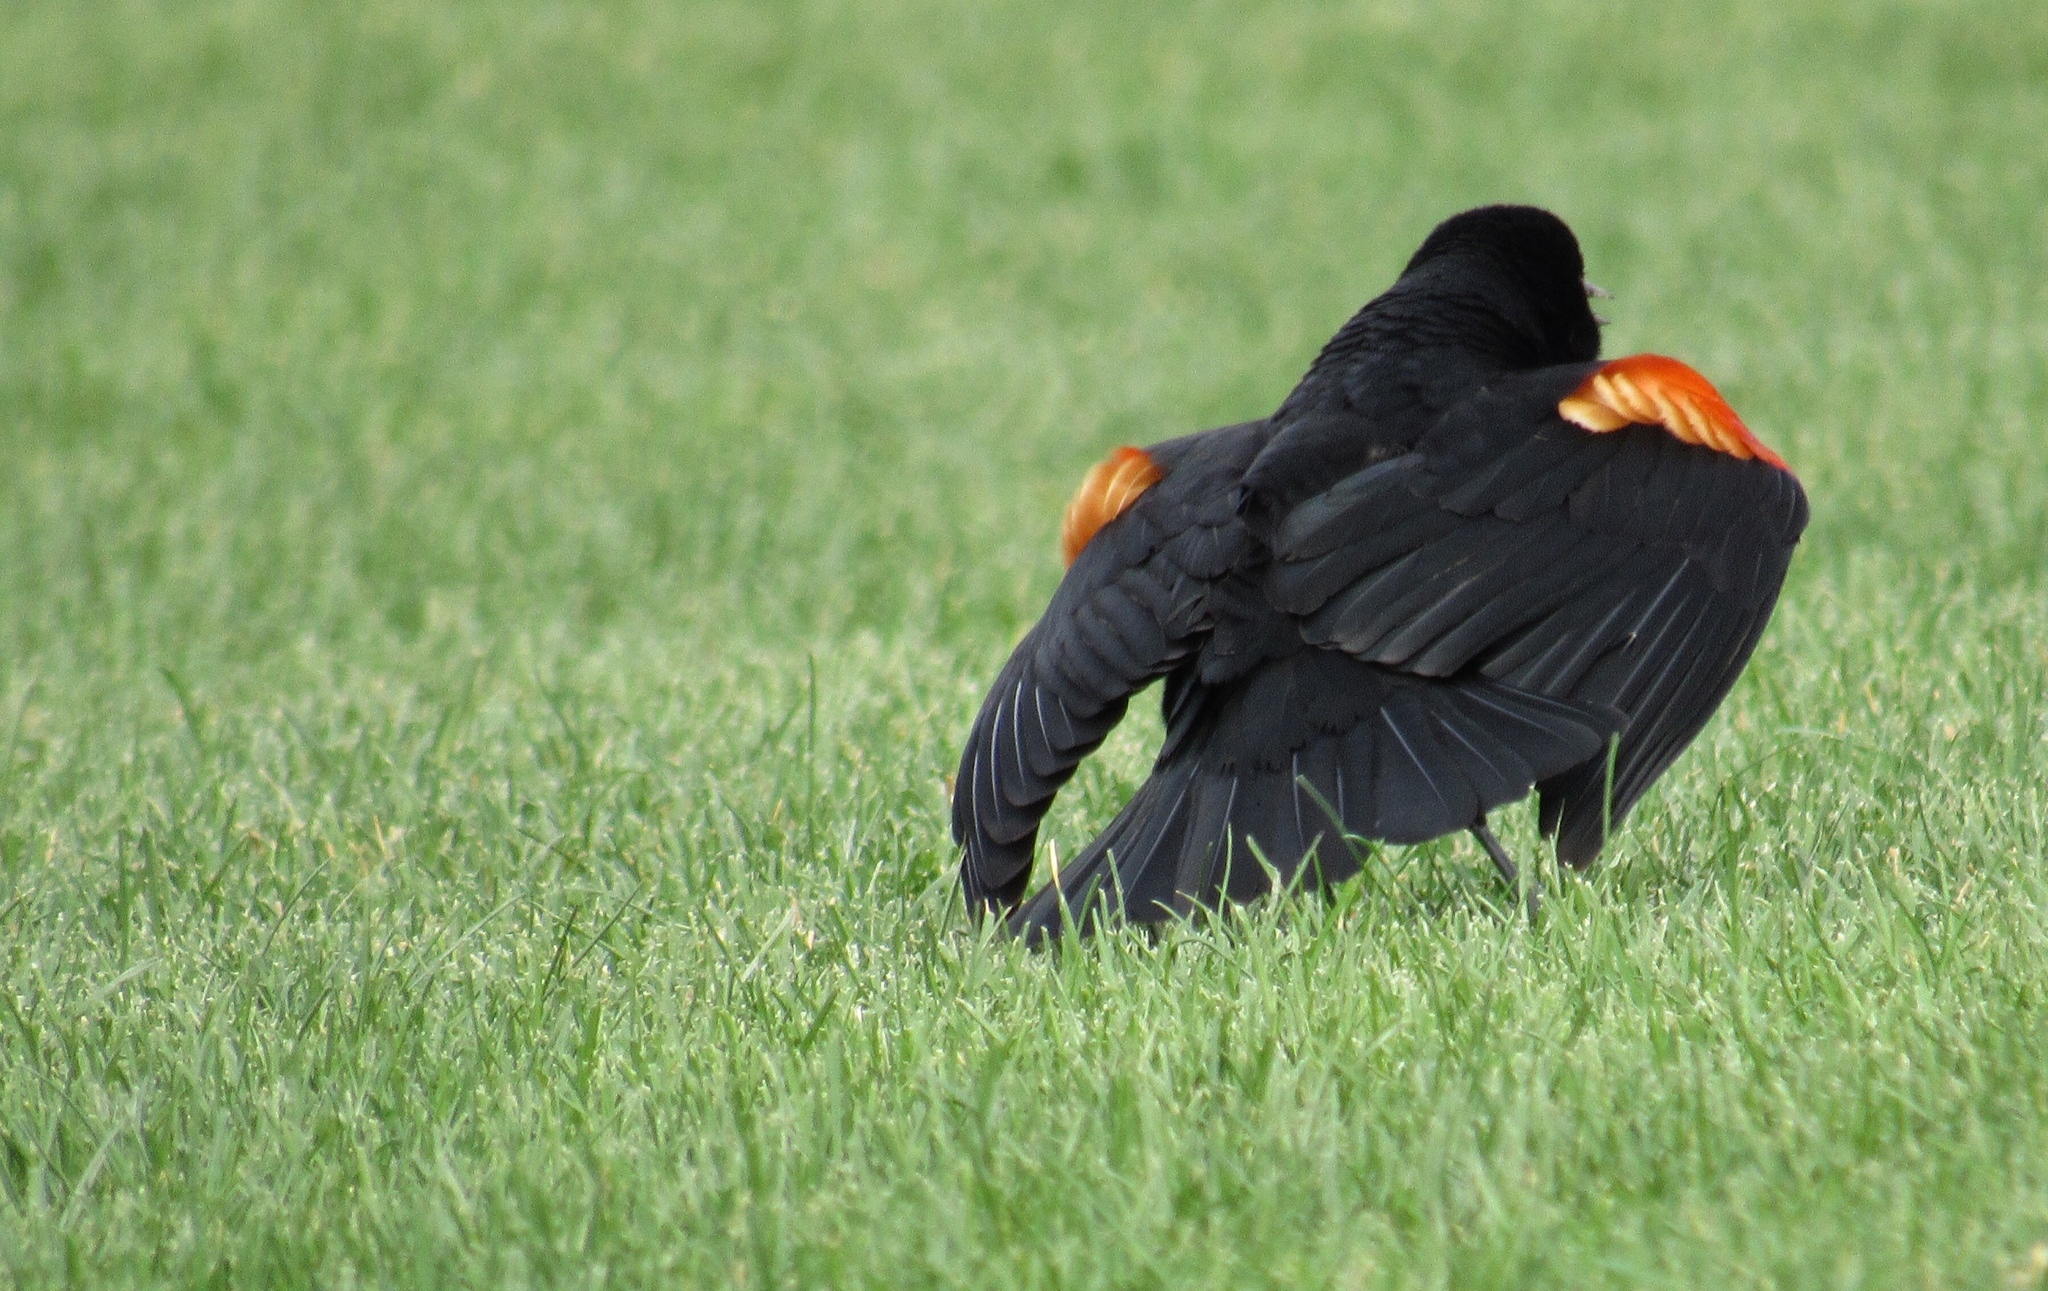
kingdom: Animalia
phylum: Chordata
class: Aves
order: Passeriformes
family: Icteridae
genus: Agelaius
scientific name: Agelaius phoeniceus
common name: Red-winged blackbird
